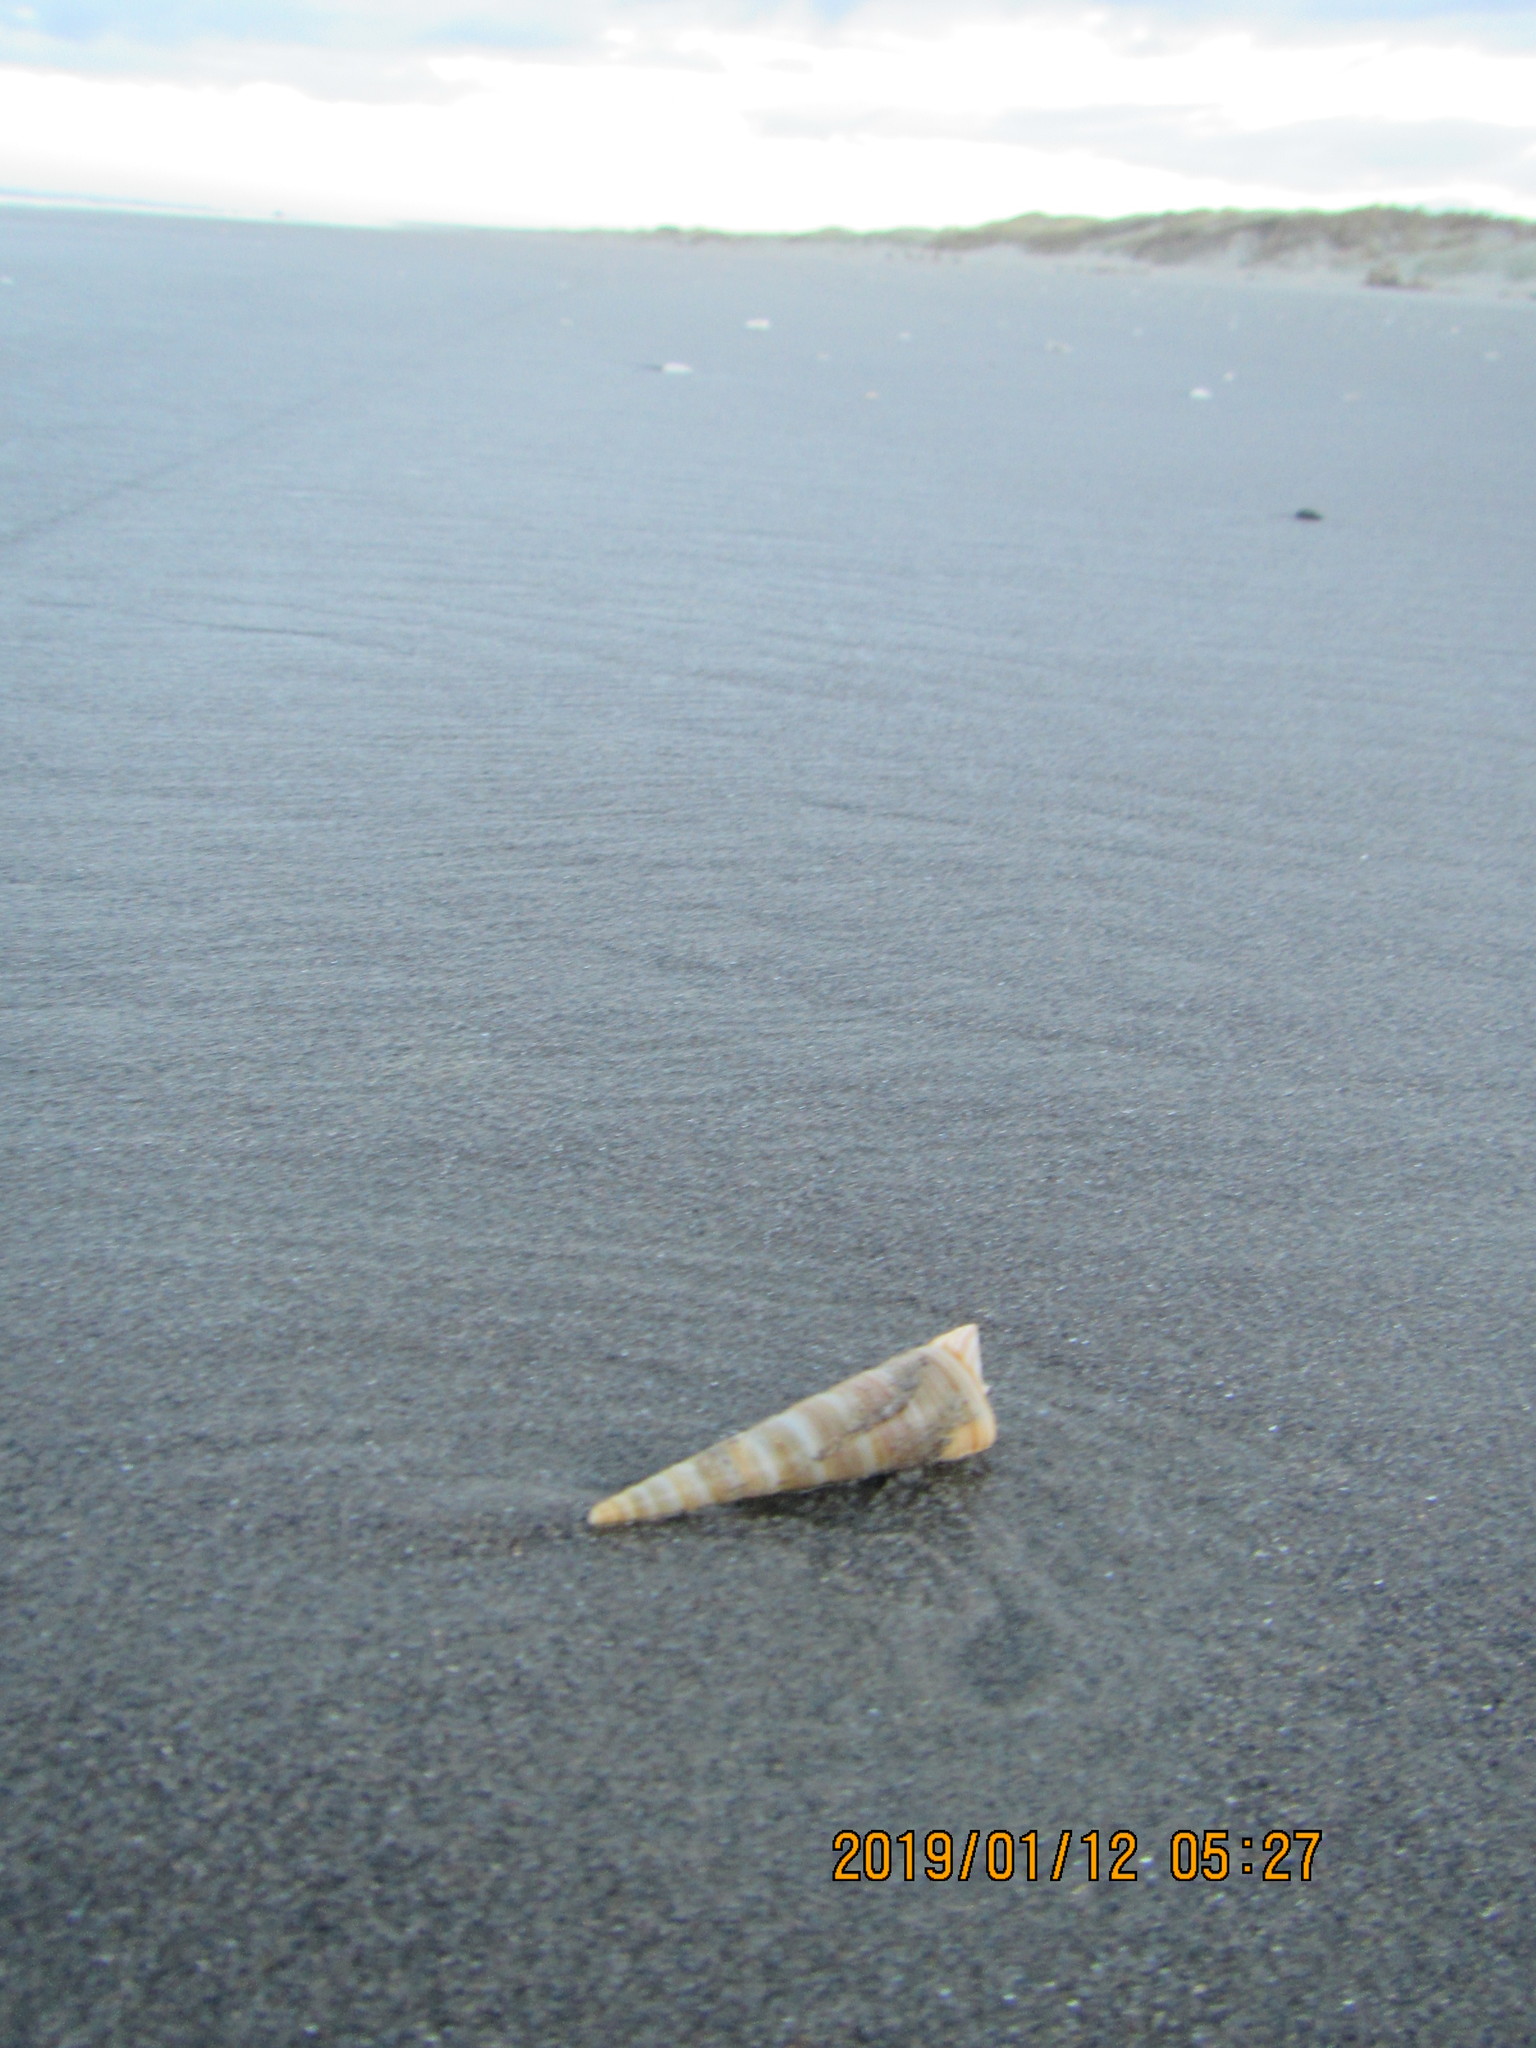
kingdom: Animalia
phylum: Mollusca
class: Gastropoda
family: Turritellidae
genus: Zeacolpus
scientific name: Zeacolpus vittatus
